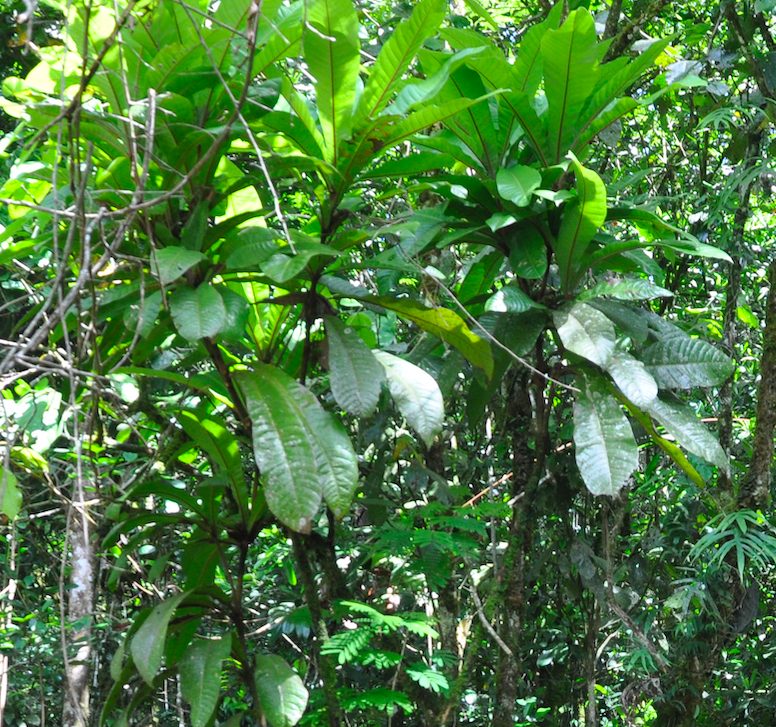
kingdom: Plantae
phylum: Tracheophyta
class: Magnoliopsida
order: Sapindales
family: Anacardiaceae
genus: Micronychia
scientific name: Micronychia macrophylla
